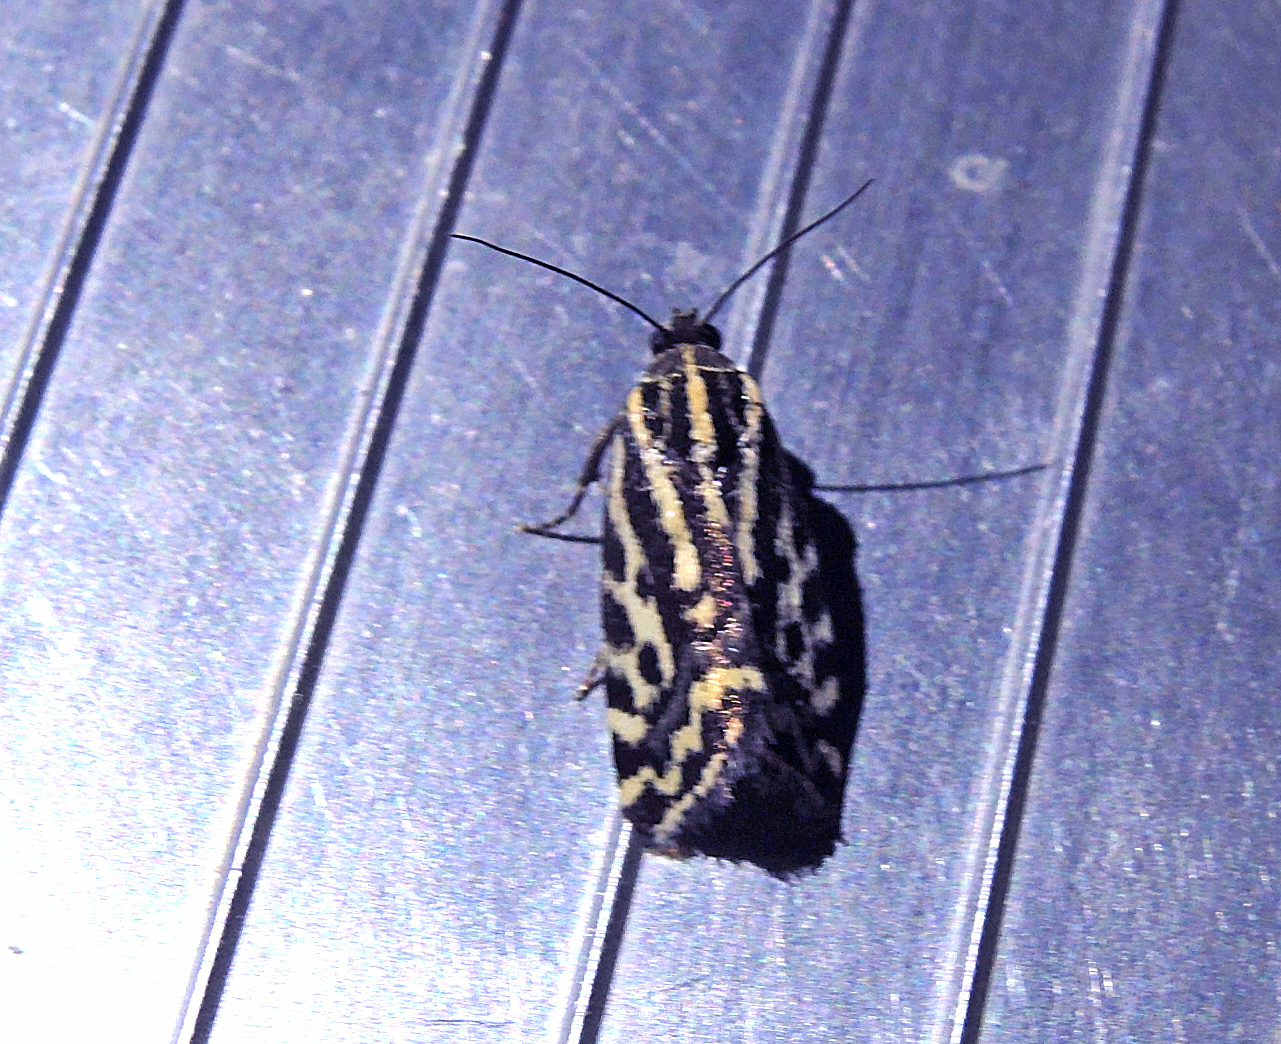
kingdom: Animalia
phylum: Arthropoda
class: Insecta
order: Lepidoptera
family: Noctuidae
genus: Acontia
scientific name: Acontia trabealis
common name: Spotted sulphur
